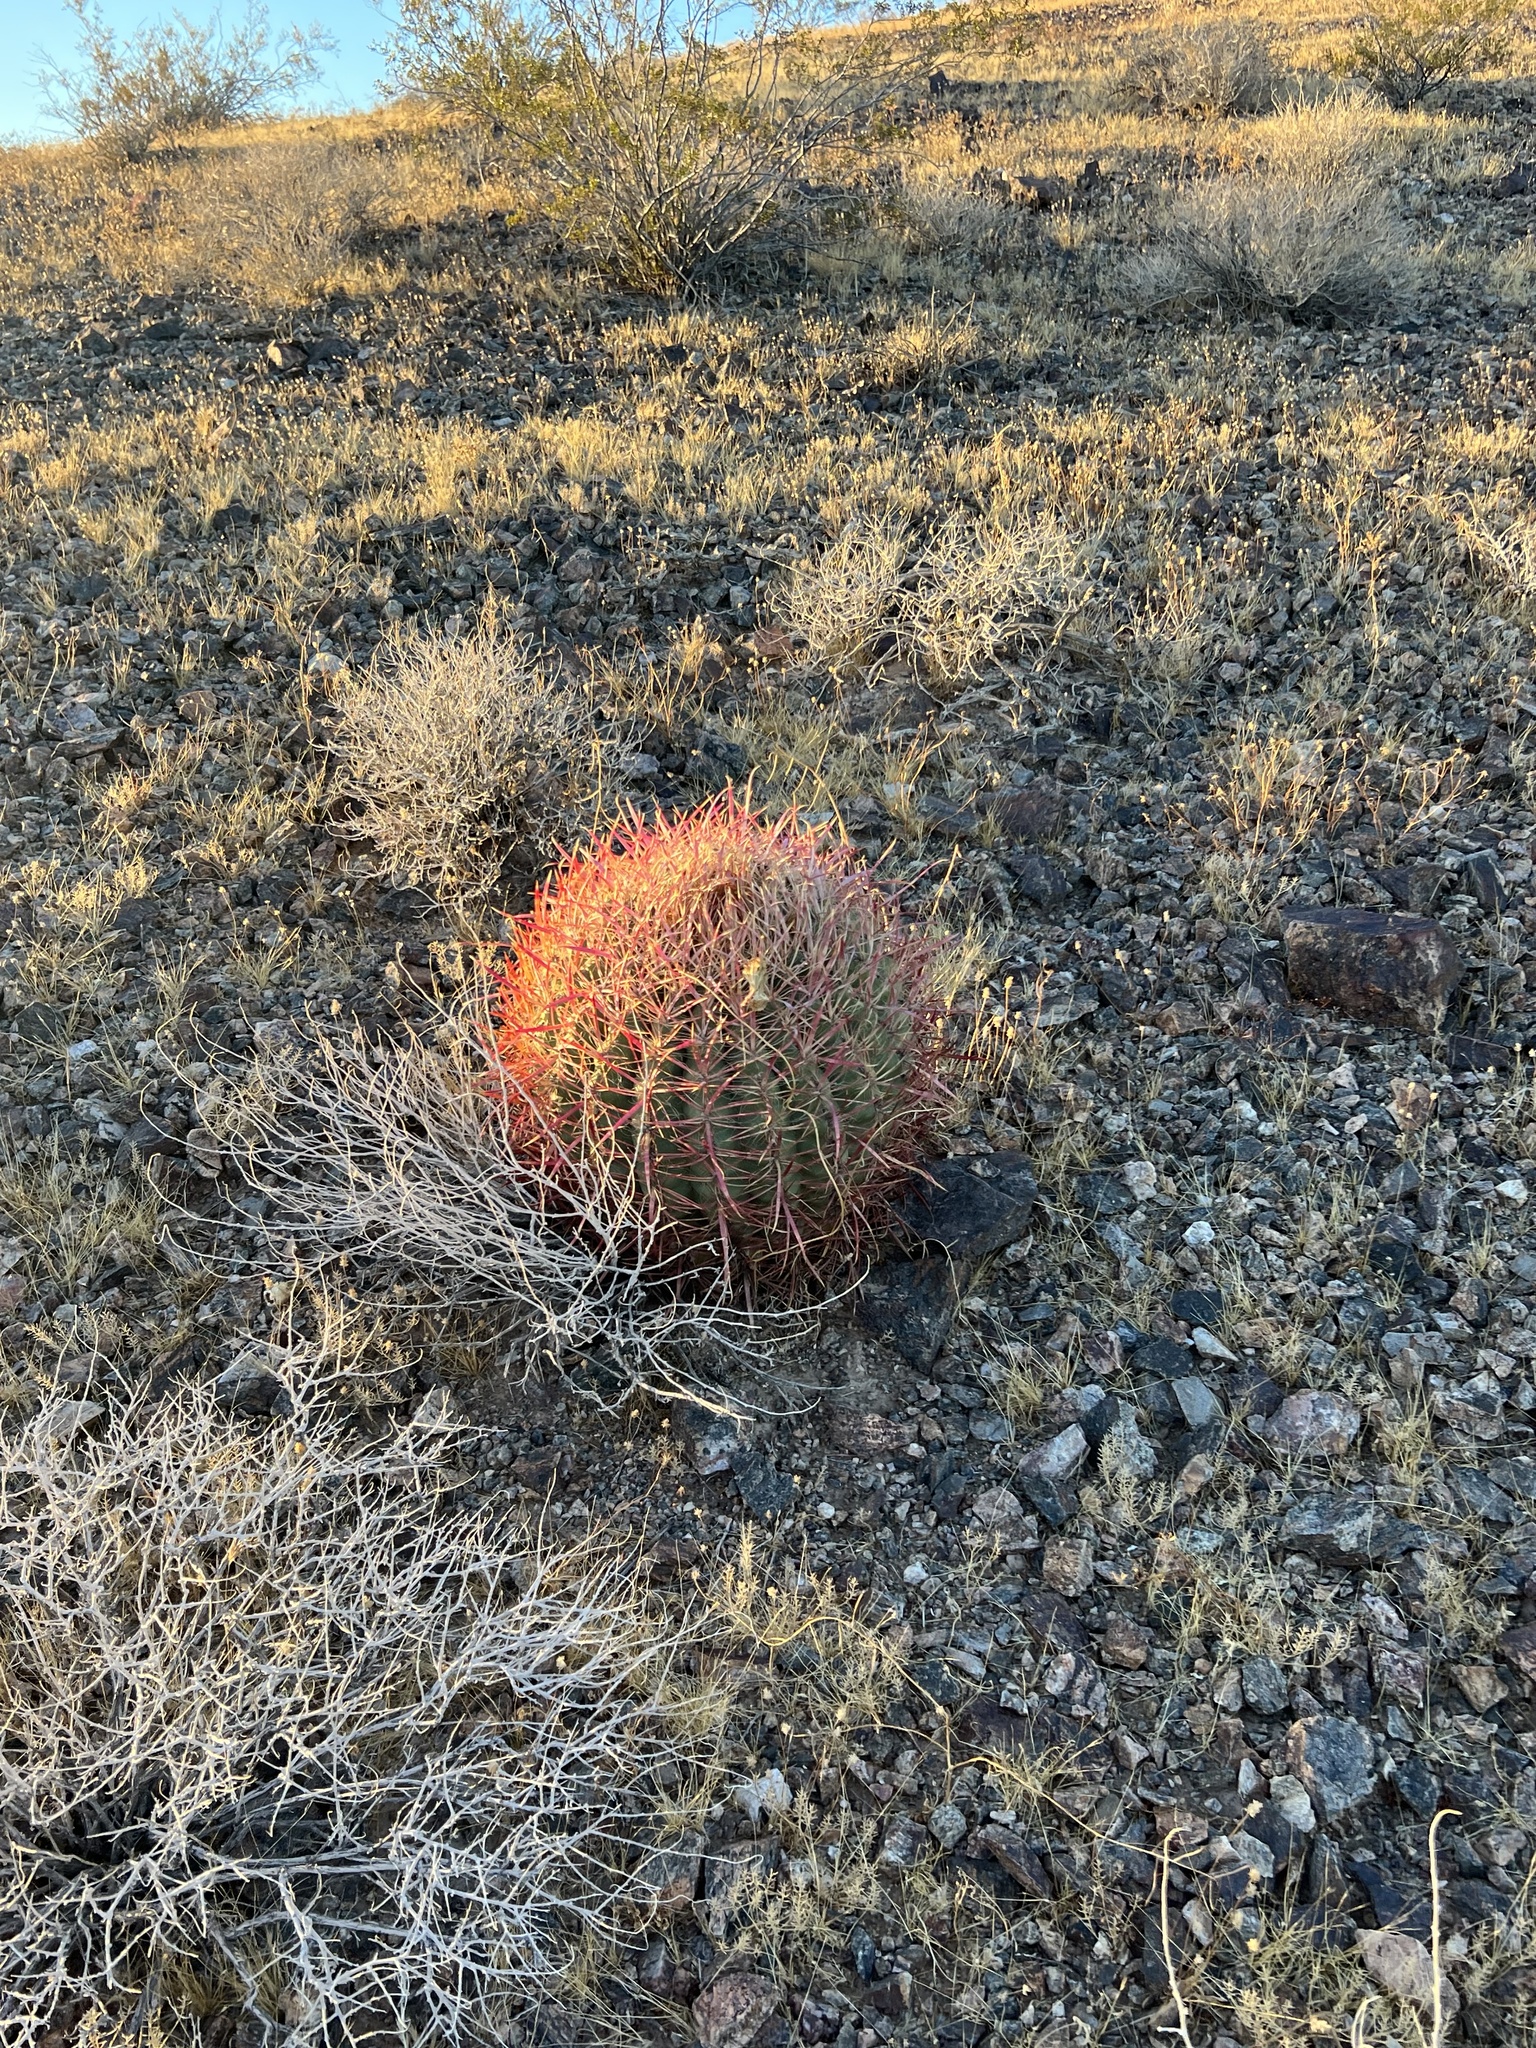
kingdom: Plantae
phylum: Tracheophyta
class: Magnoliopsida
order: Caryophyllales
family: Cactaceae
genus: Ferocactus
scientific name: Ferocactus cylindraceus
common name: California barrel cactus
